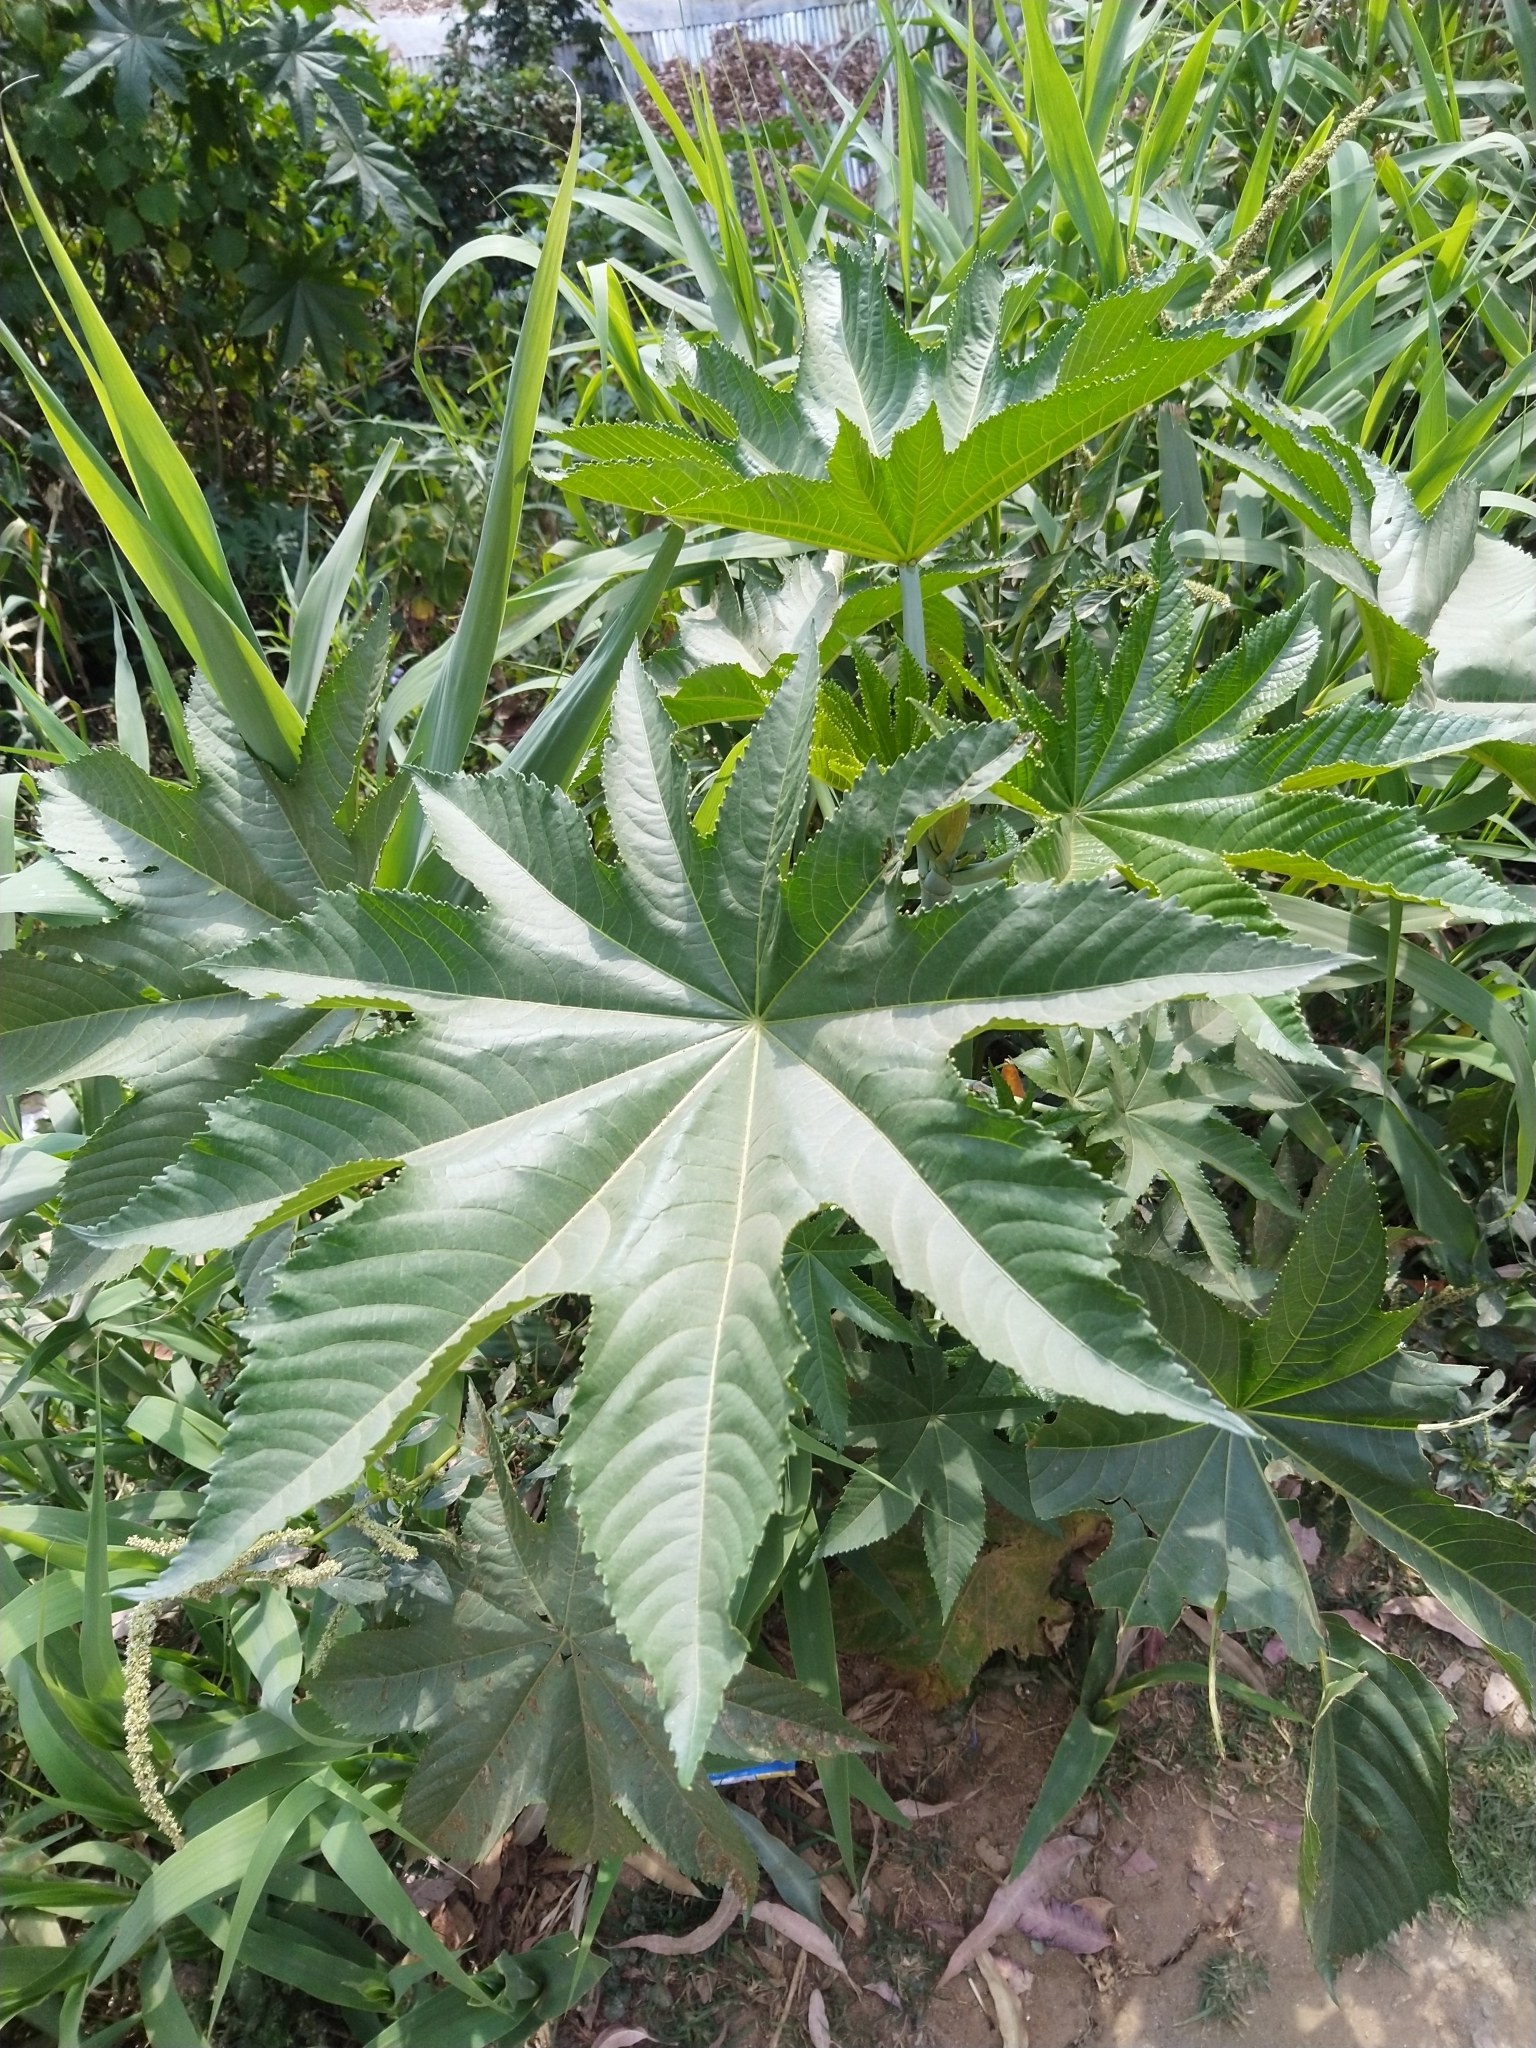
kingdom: Plantae
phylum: Tracheophyta
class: Magnoliopsida
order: Malpighiales
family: Euphorbiaceae
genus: Ricinus
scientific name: Ricinus communis
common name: Castor-oil-plant
